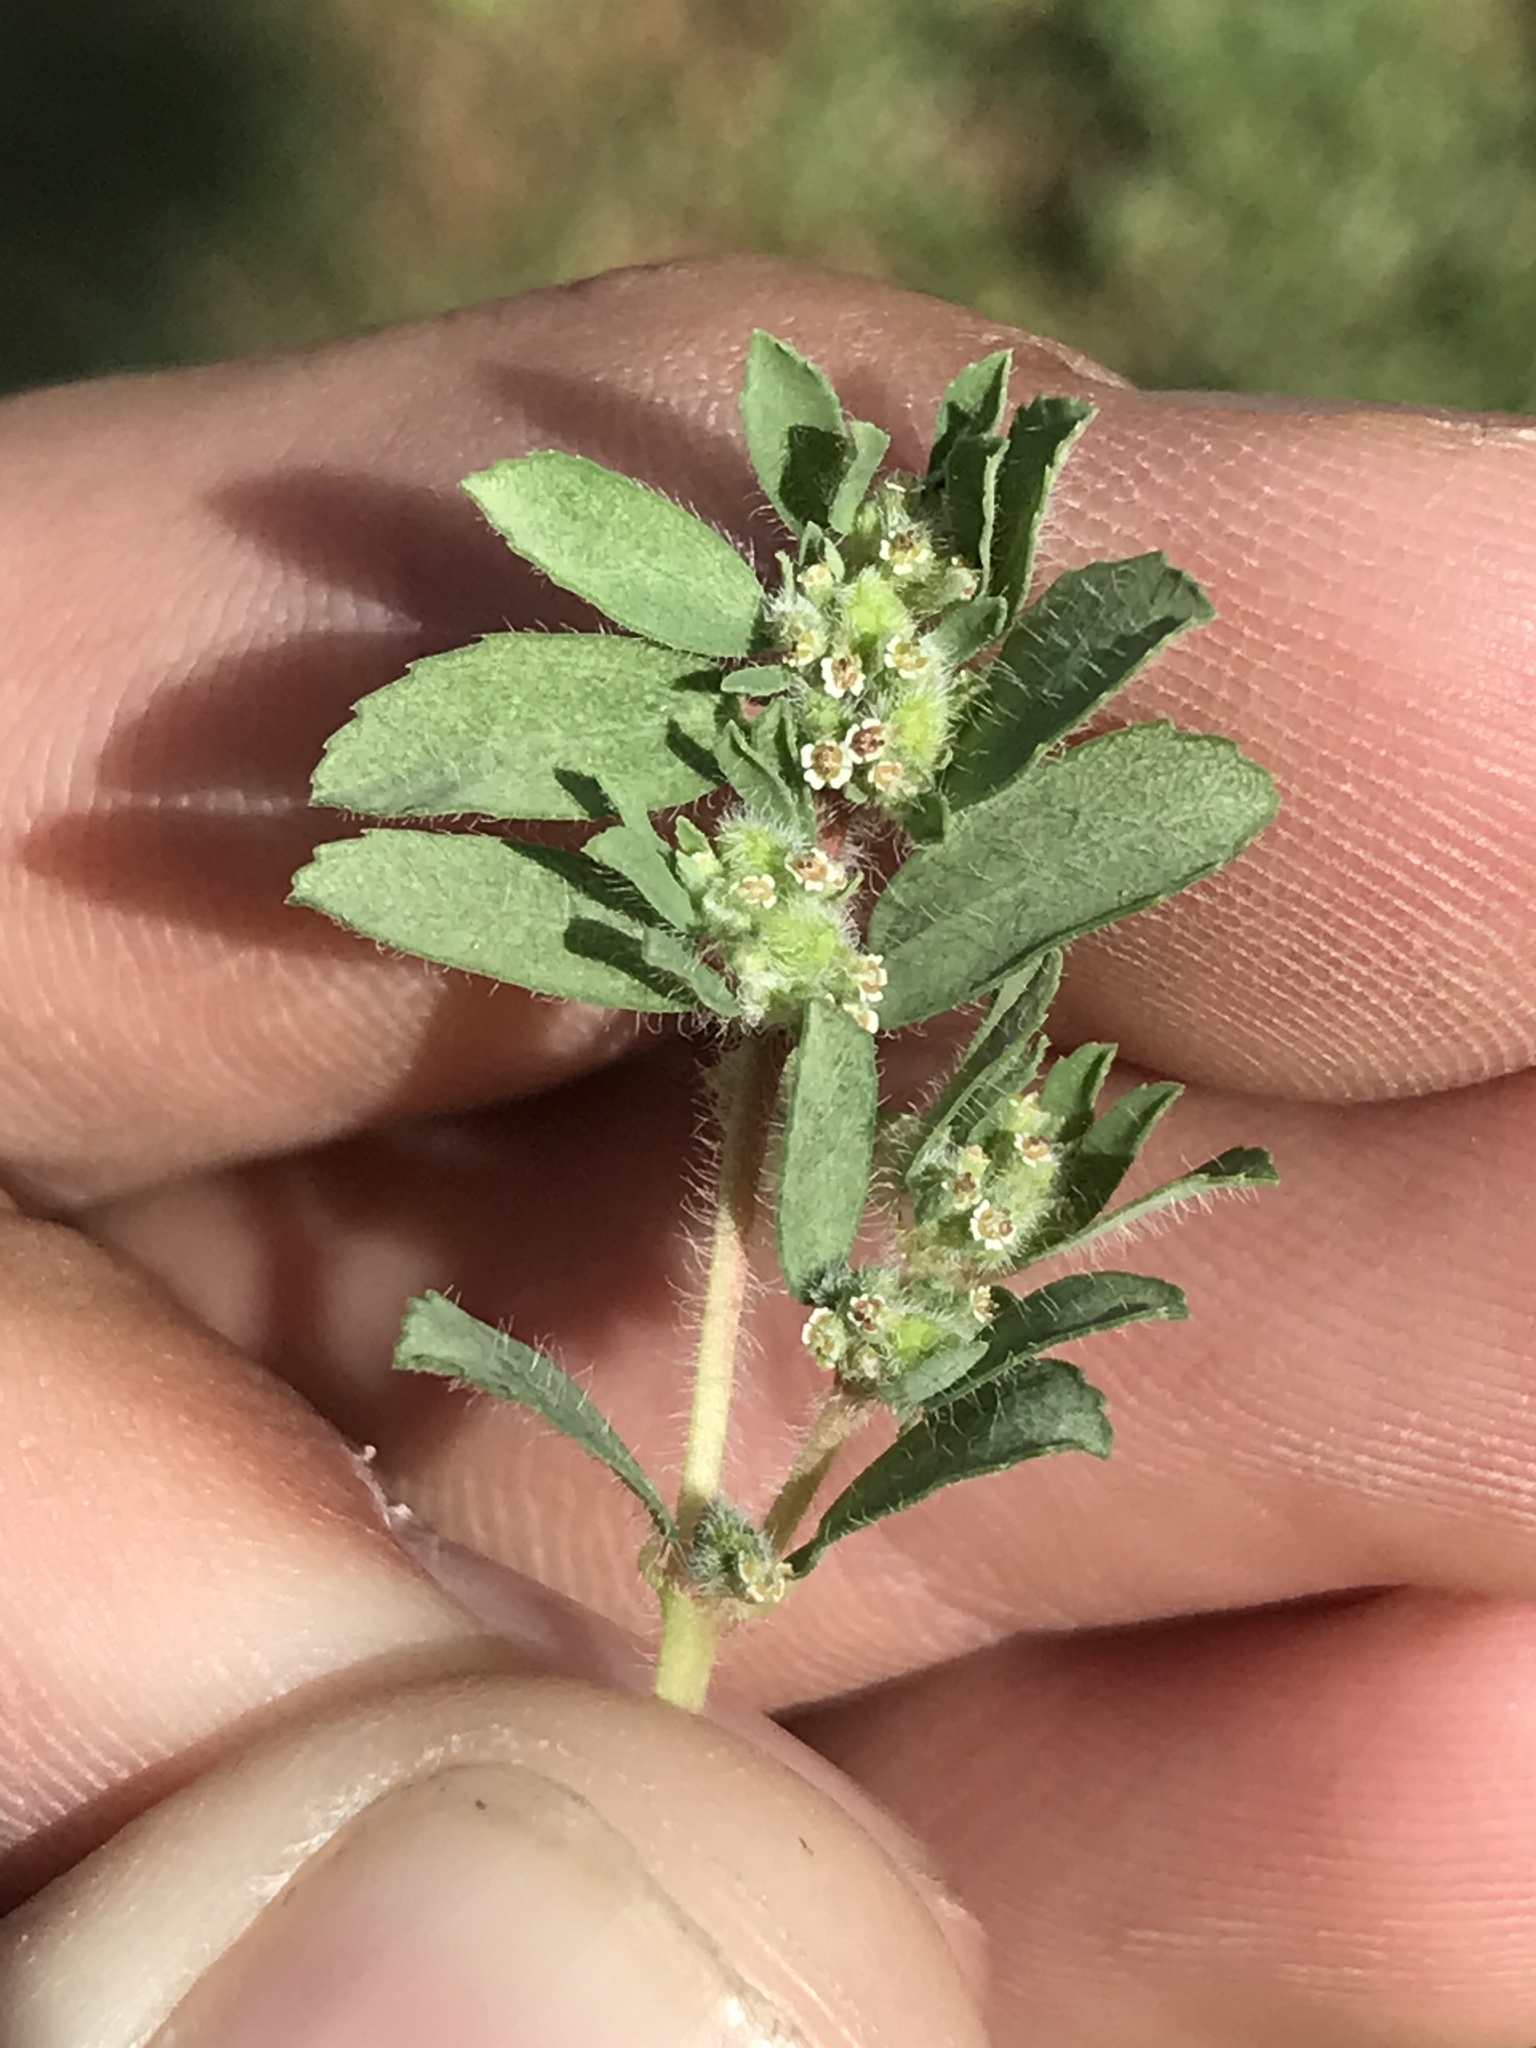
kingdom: Plantae
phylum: Tracheophyta
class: Magnoliopsida
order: Malpighiales
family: Euphorbiaceae
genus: Euphorbia
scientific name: Euphorbia stictospora
